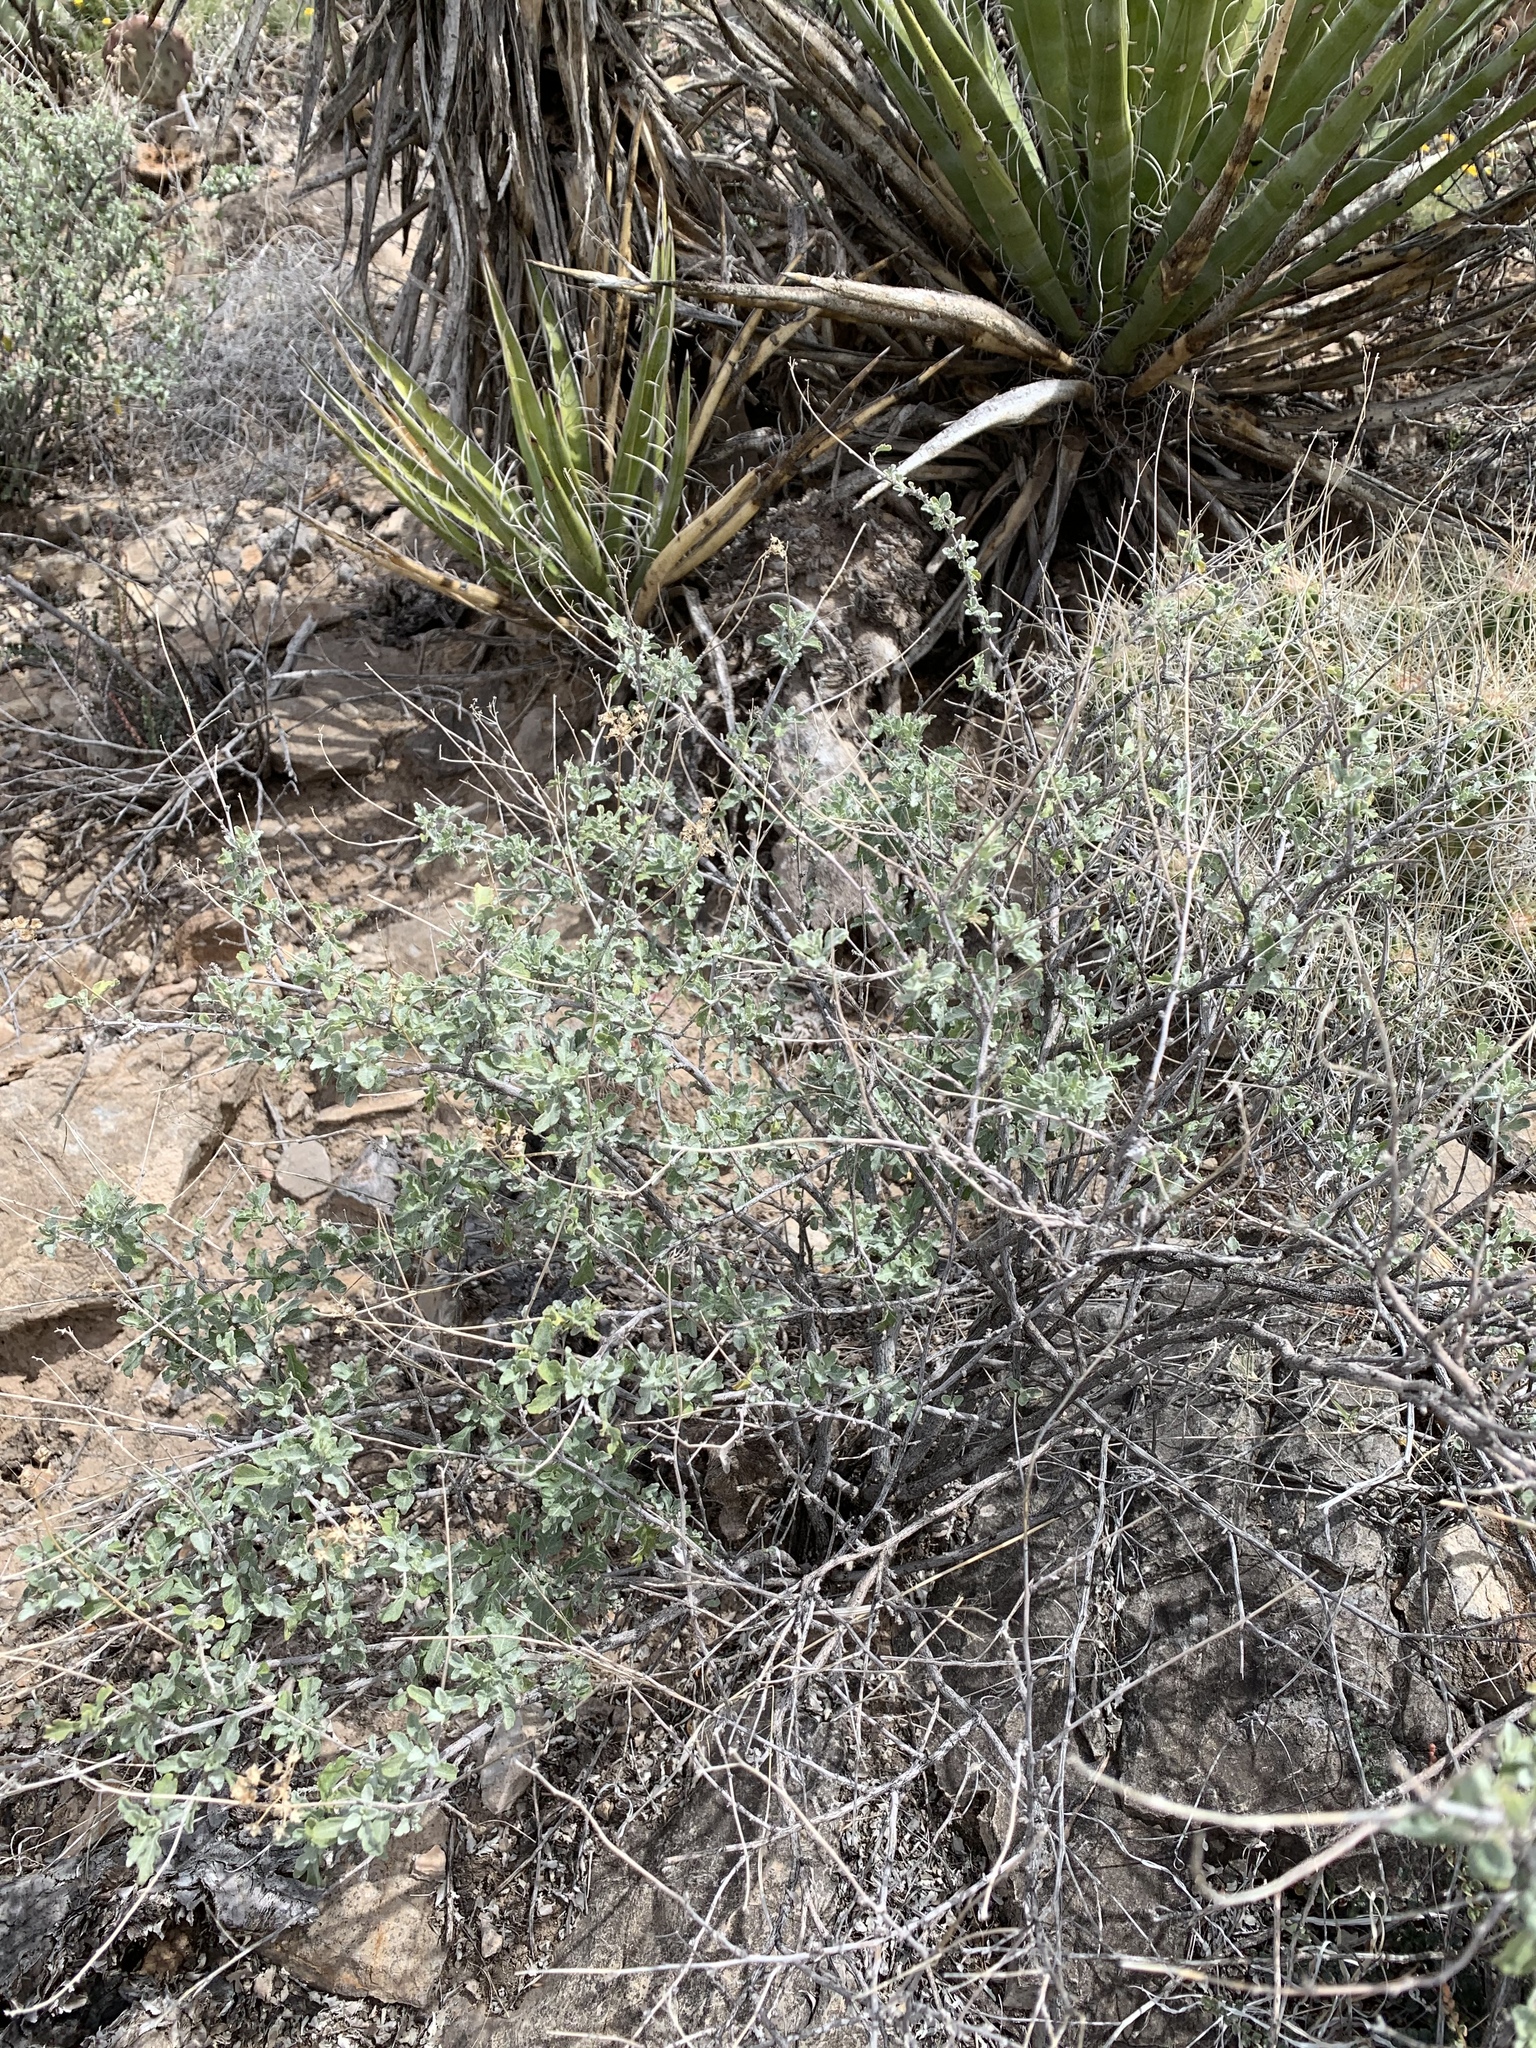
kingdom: Plantae
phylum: Tracheophyta
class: Magnoliopsida
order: Asterales
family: Asteraceae
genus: Parthenium
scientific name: Parthenium incanum
